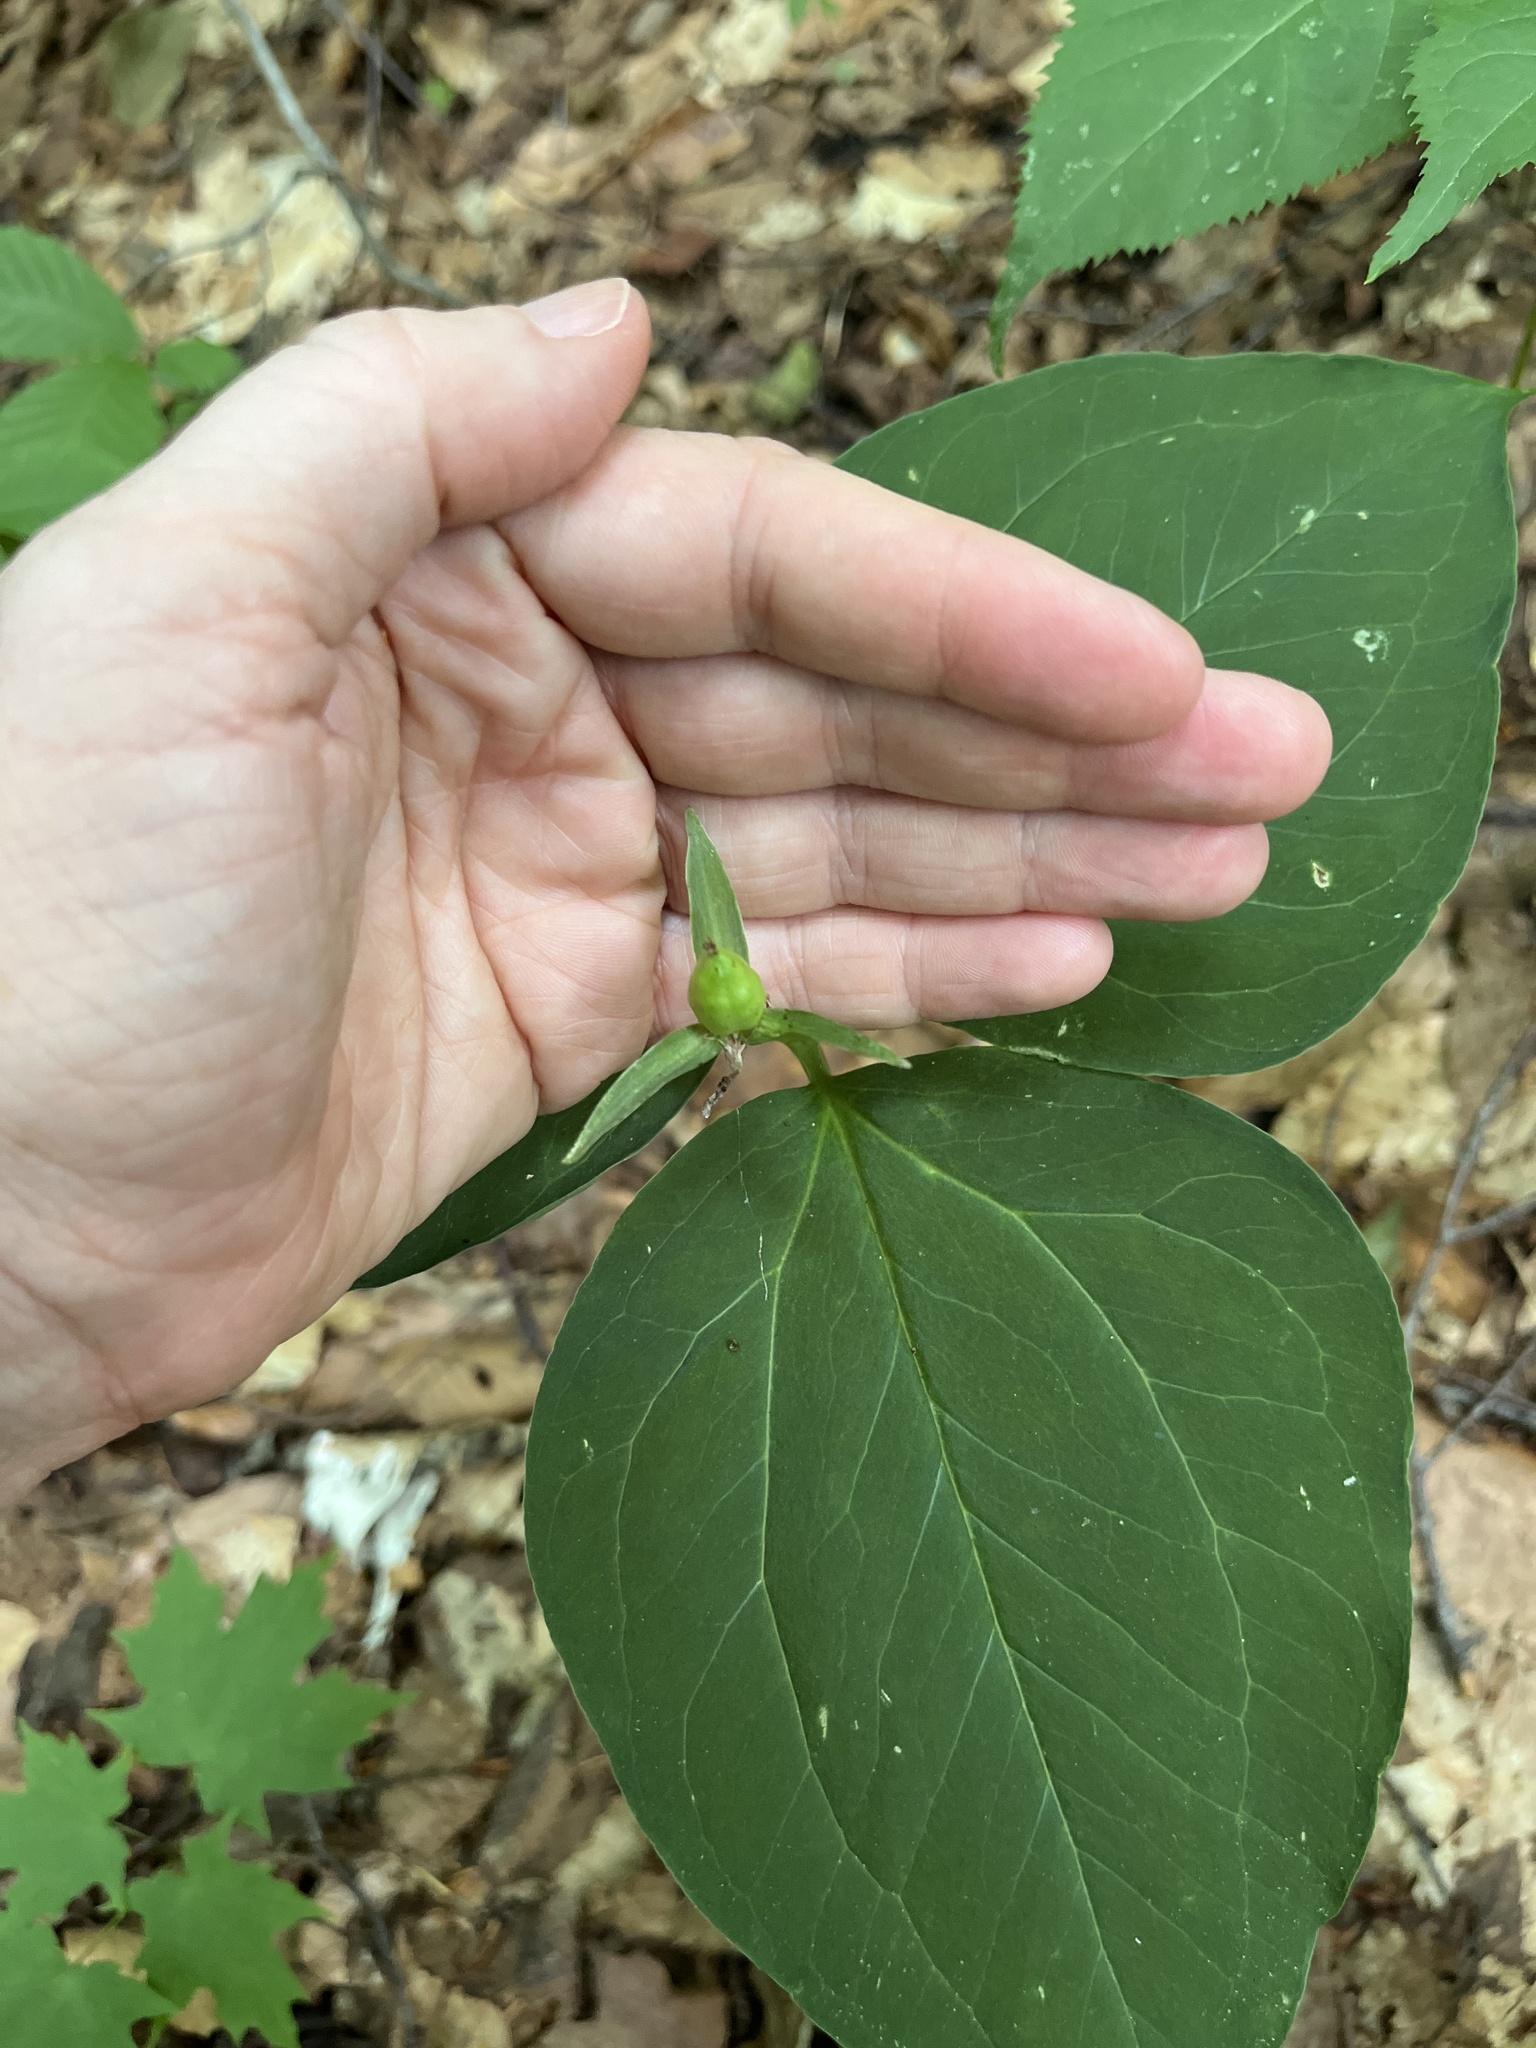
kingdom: Plantae
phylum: Tracheophyta
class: Liliopsida
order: Liliales
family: Melanthiaceae
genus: Trillium
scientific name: Trillium undulatum
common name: Paint trillium
